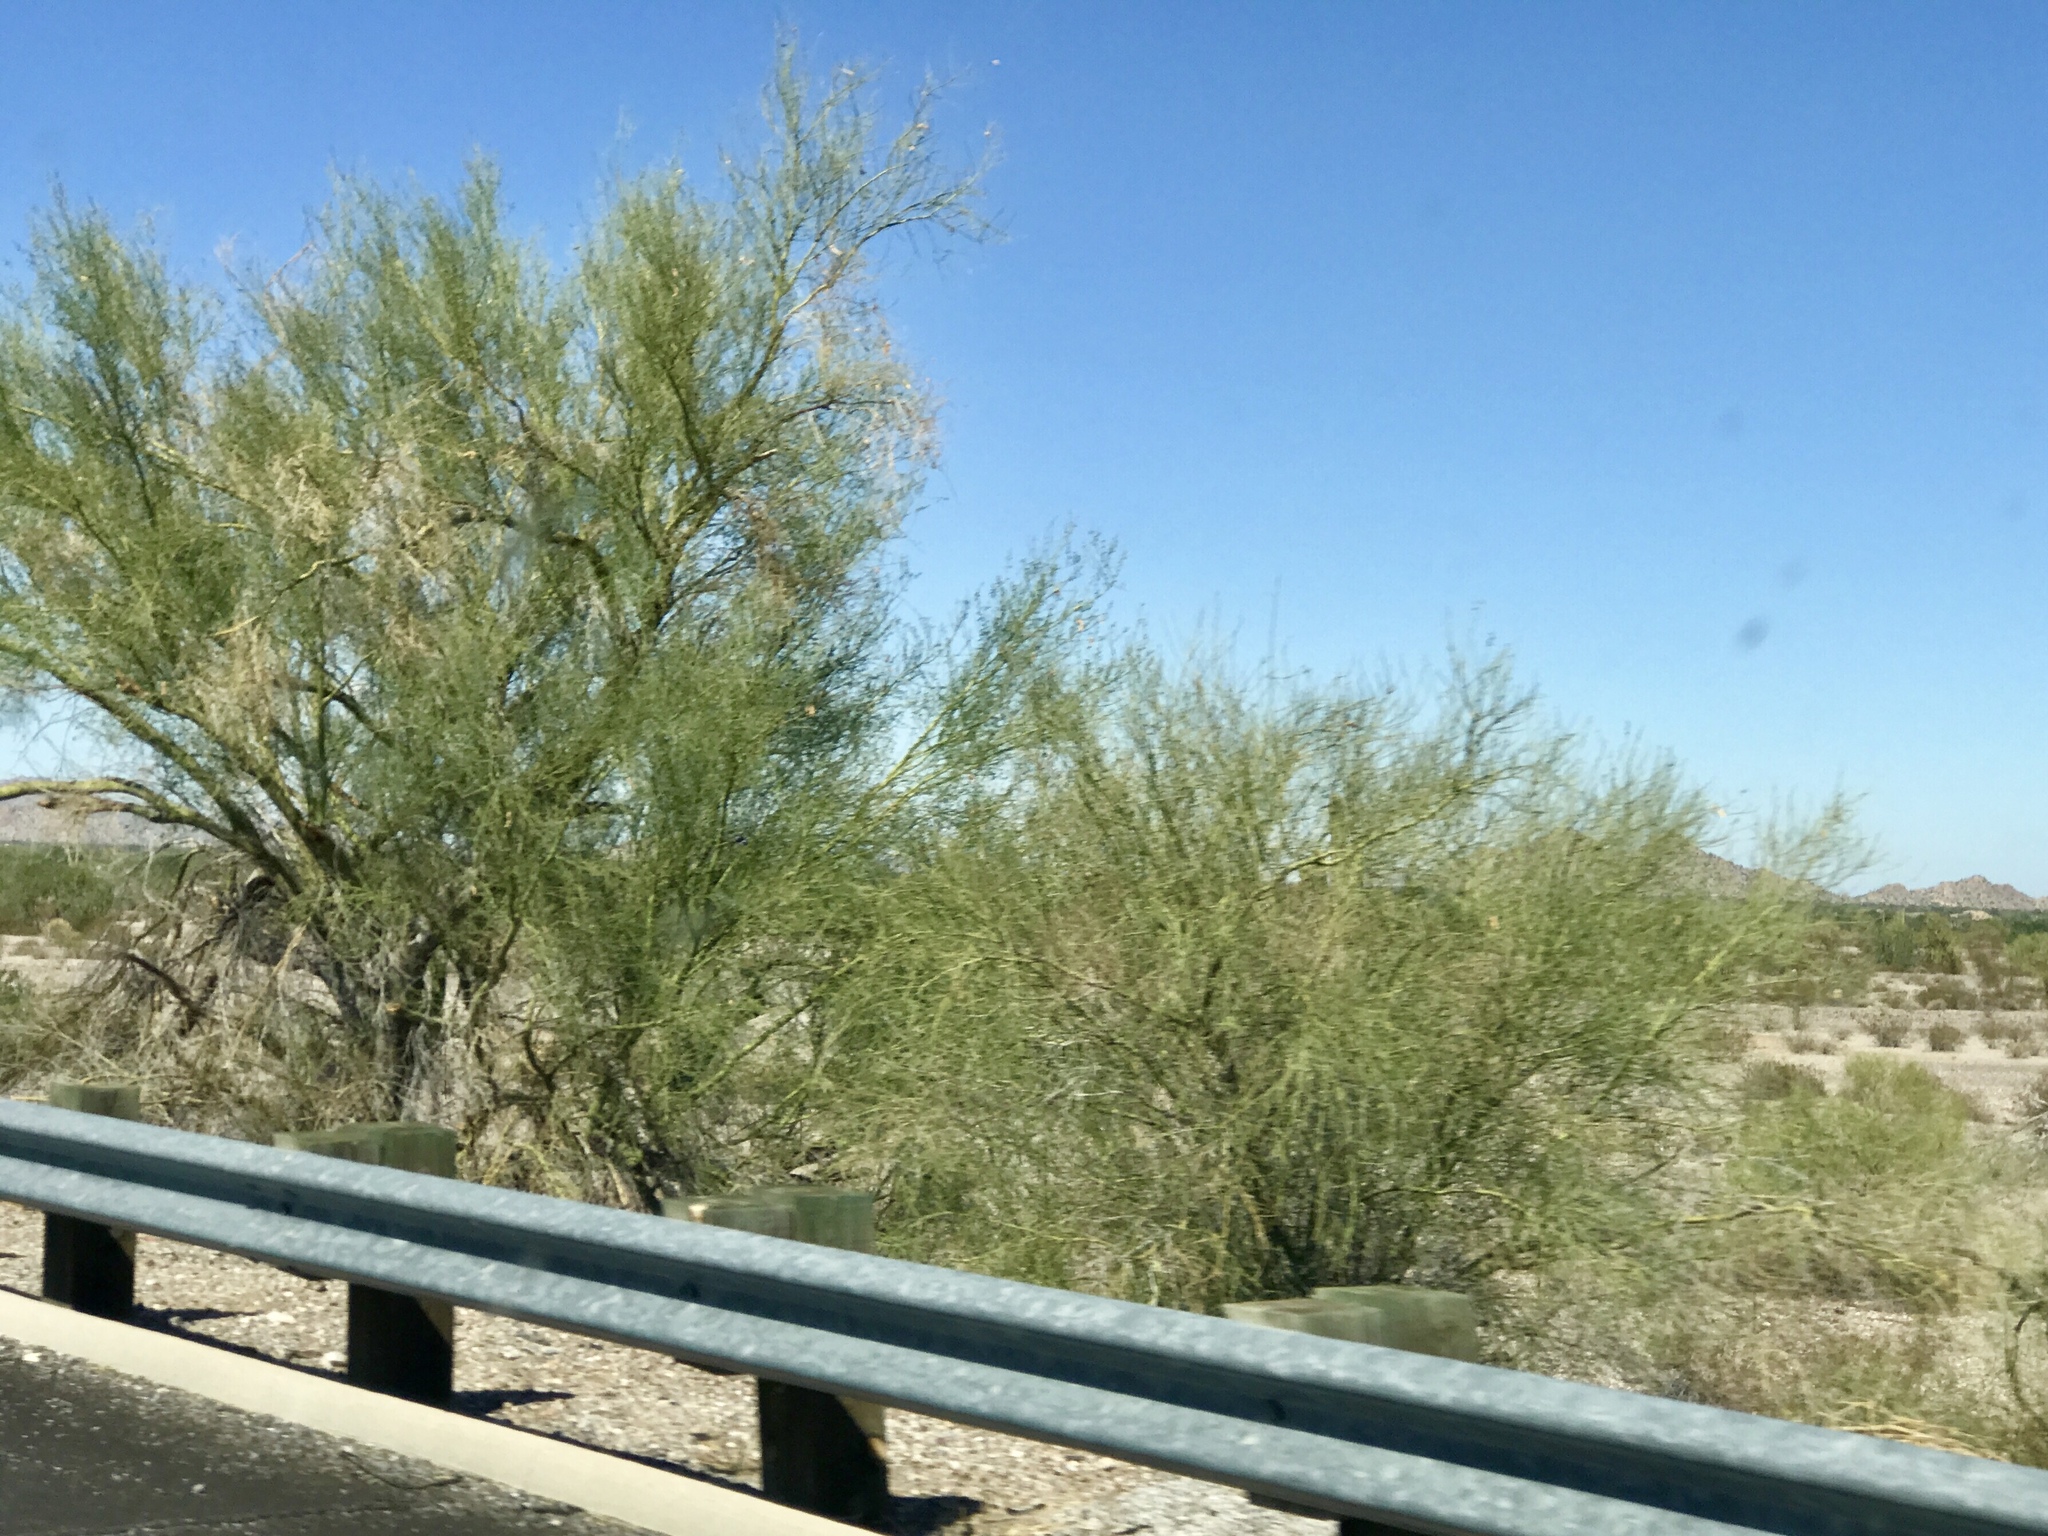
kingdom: Plantae
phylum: Tracheophyta
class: Magnoliopsida
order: Fabales
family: Fabaceae
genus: Parkinsonia
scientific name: Parkinsonia florida
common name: Blue paloverde
